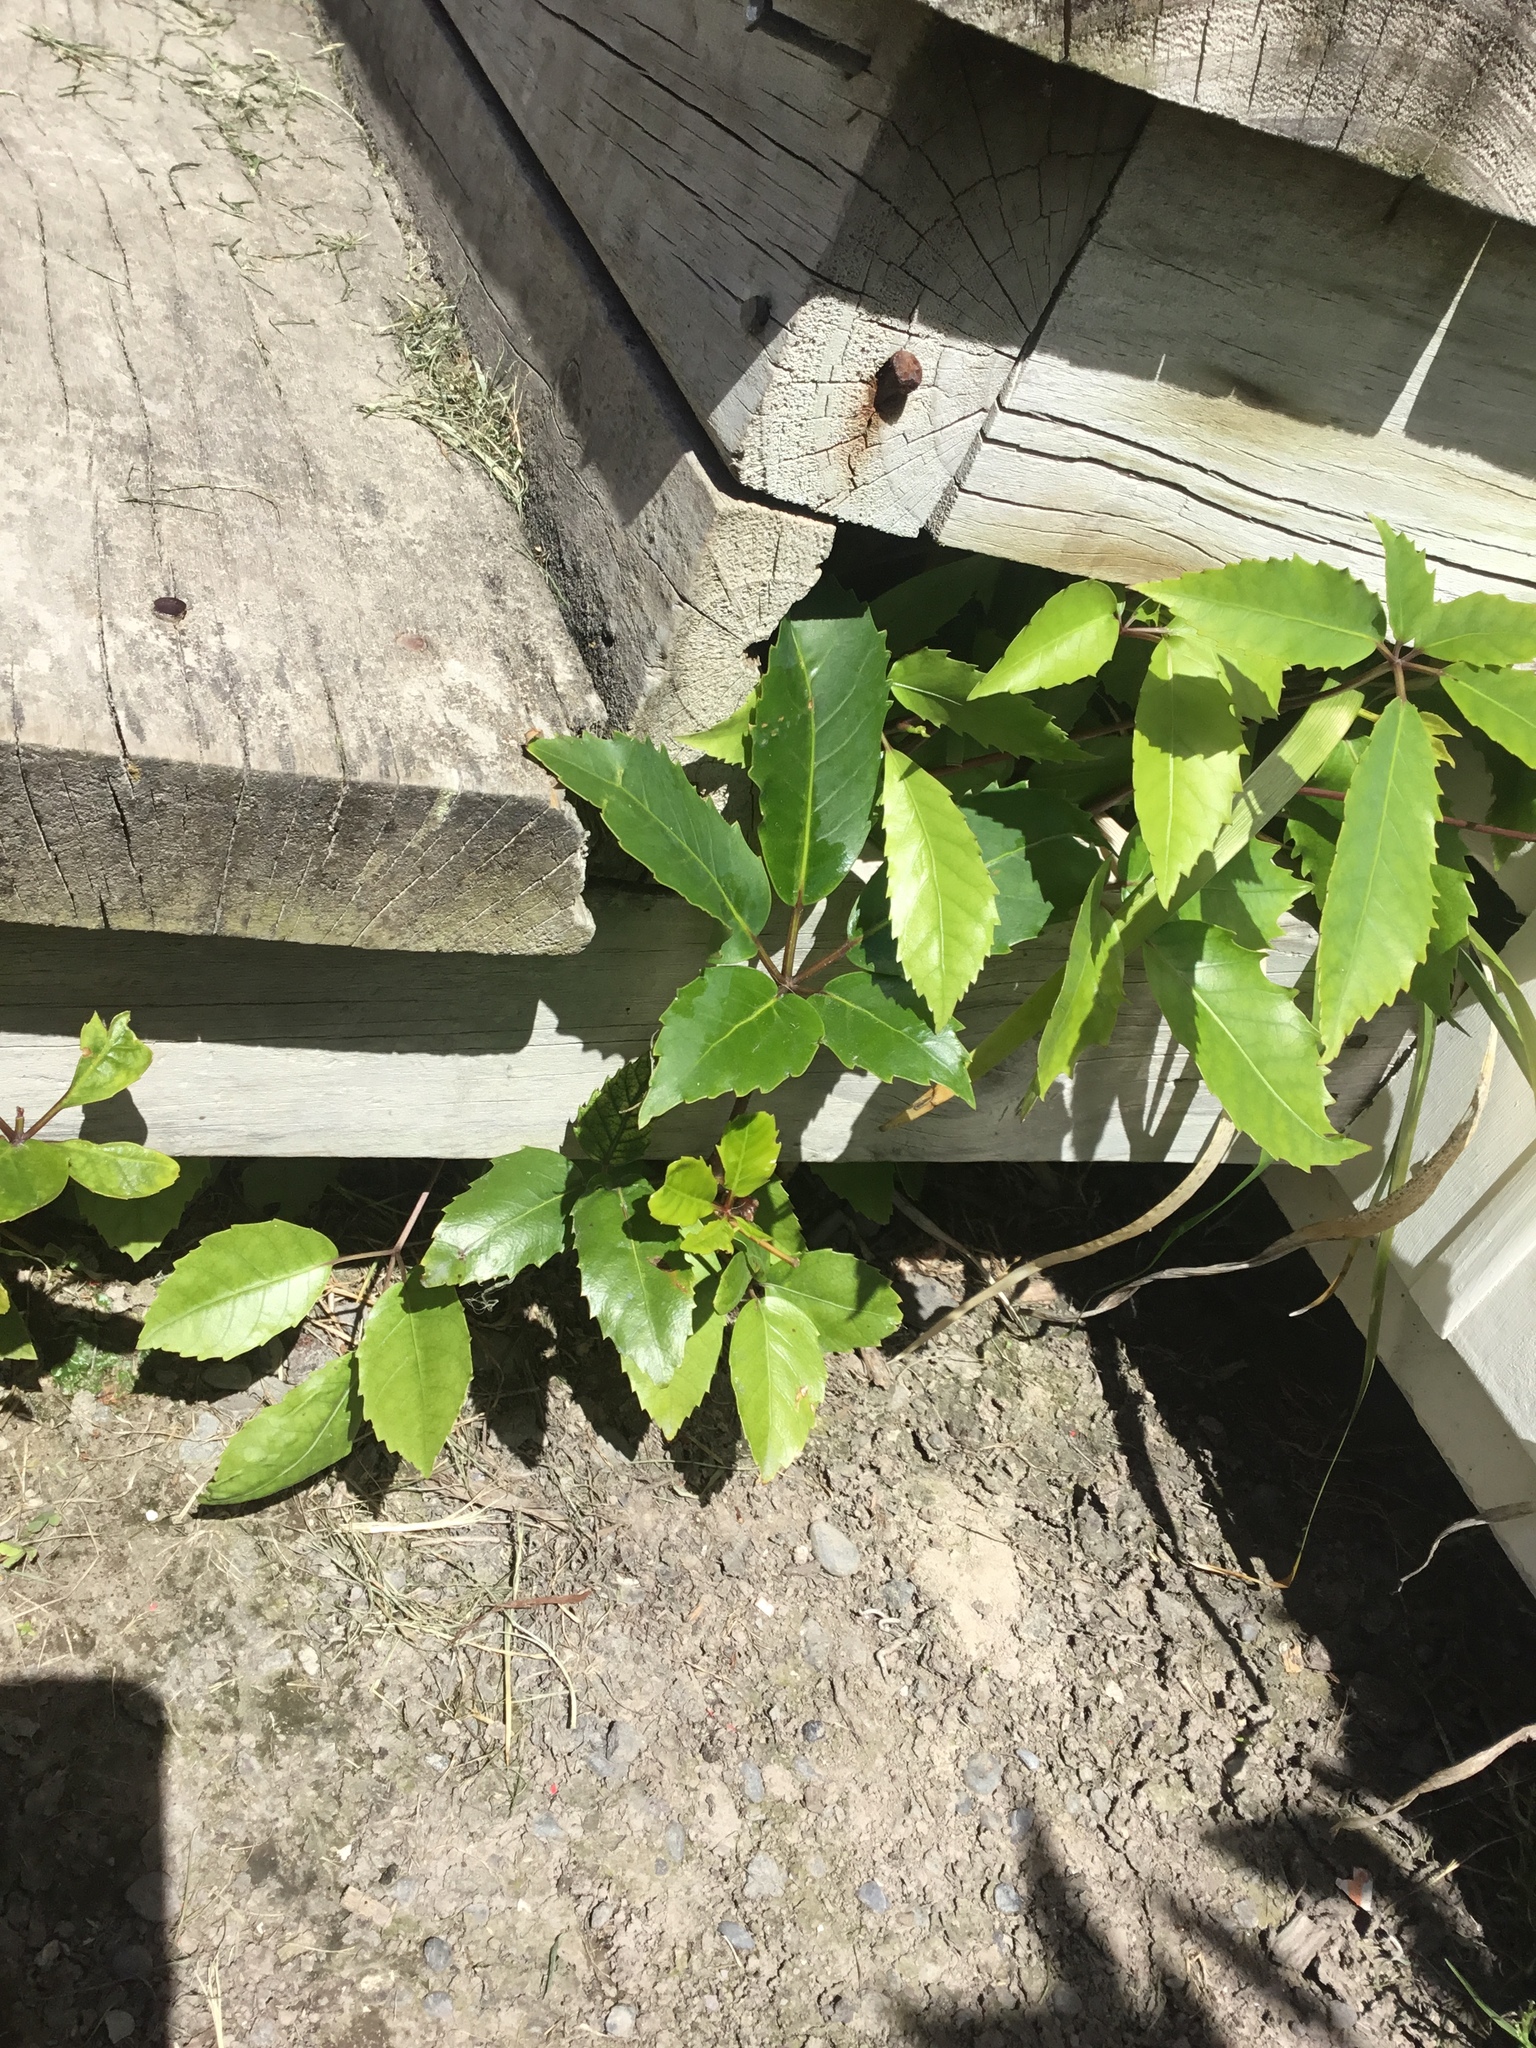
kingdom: Plantae
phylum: Tracheophyta
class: Magnoliopsida
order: Apiales
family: Araliaceae
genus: Neopanax
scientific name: Neopanax arboreus
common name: Five-fingers
